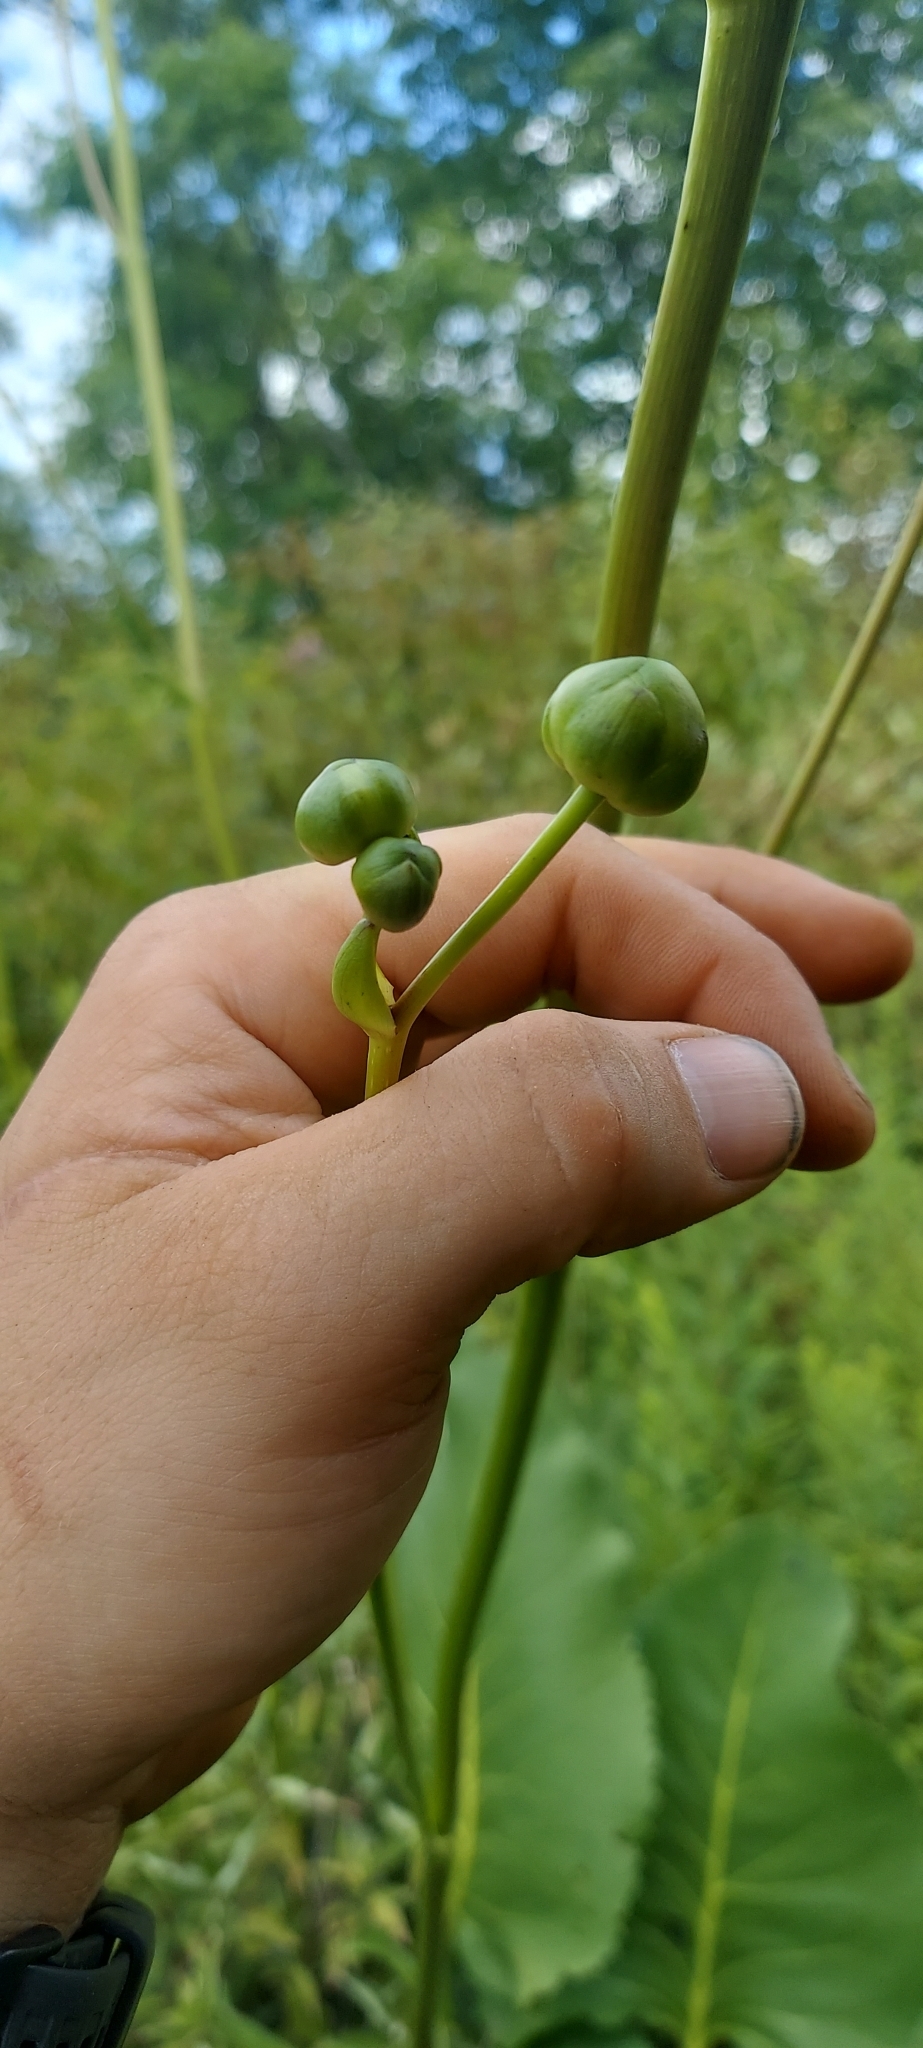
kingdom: Plantae
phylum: Tracheophyta
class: Magnoliopsida
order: Asterales
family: Asteraceae
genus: Silphium
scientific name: Silphium terebinthinaceum
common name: Basal-leaf rosinweed
